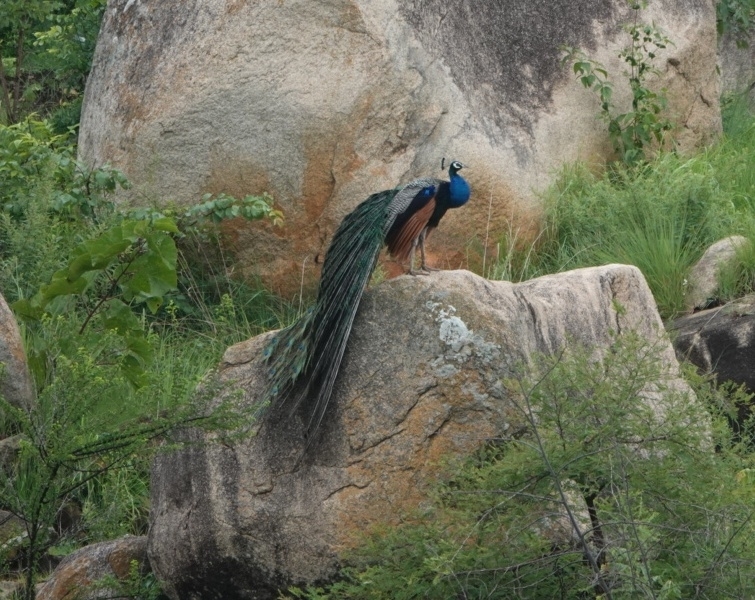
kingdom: Animalia
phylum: Chordata
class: Aves
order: Galliformes
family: Phasianidae
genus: Pavo
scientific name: Pavo cristatus
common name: Indian peafowl
